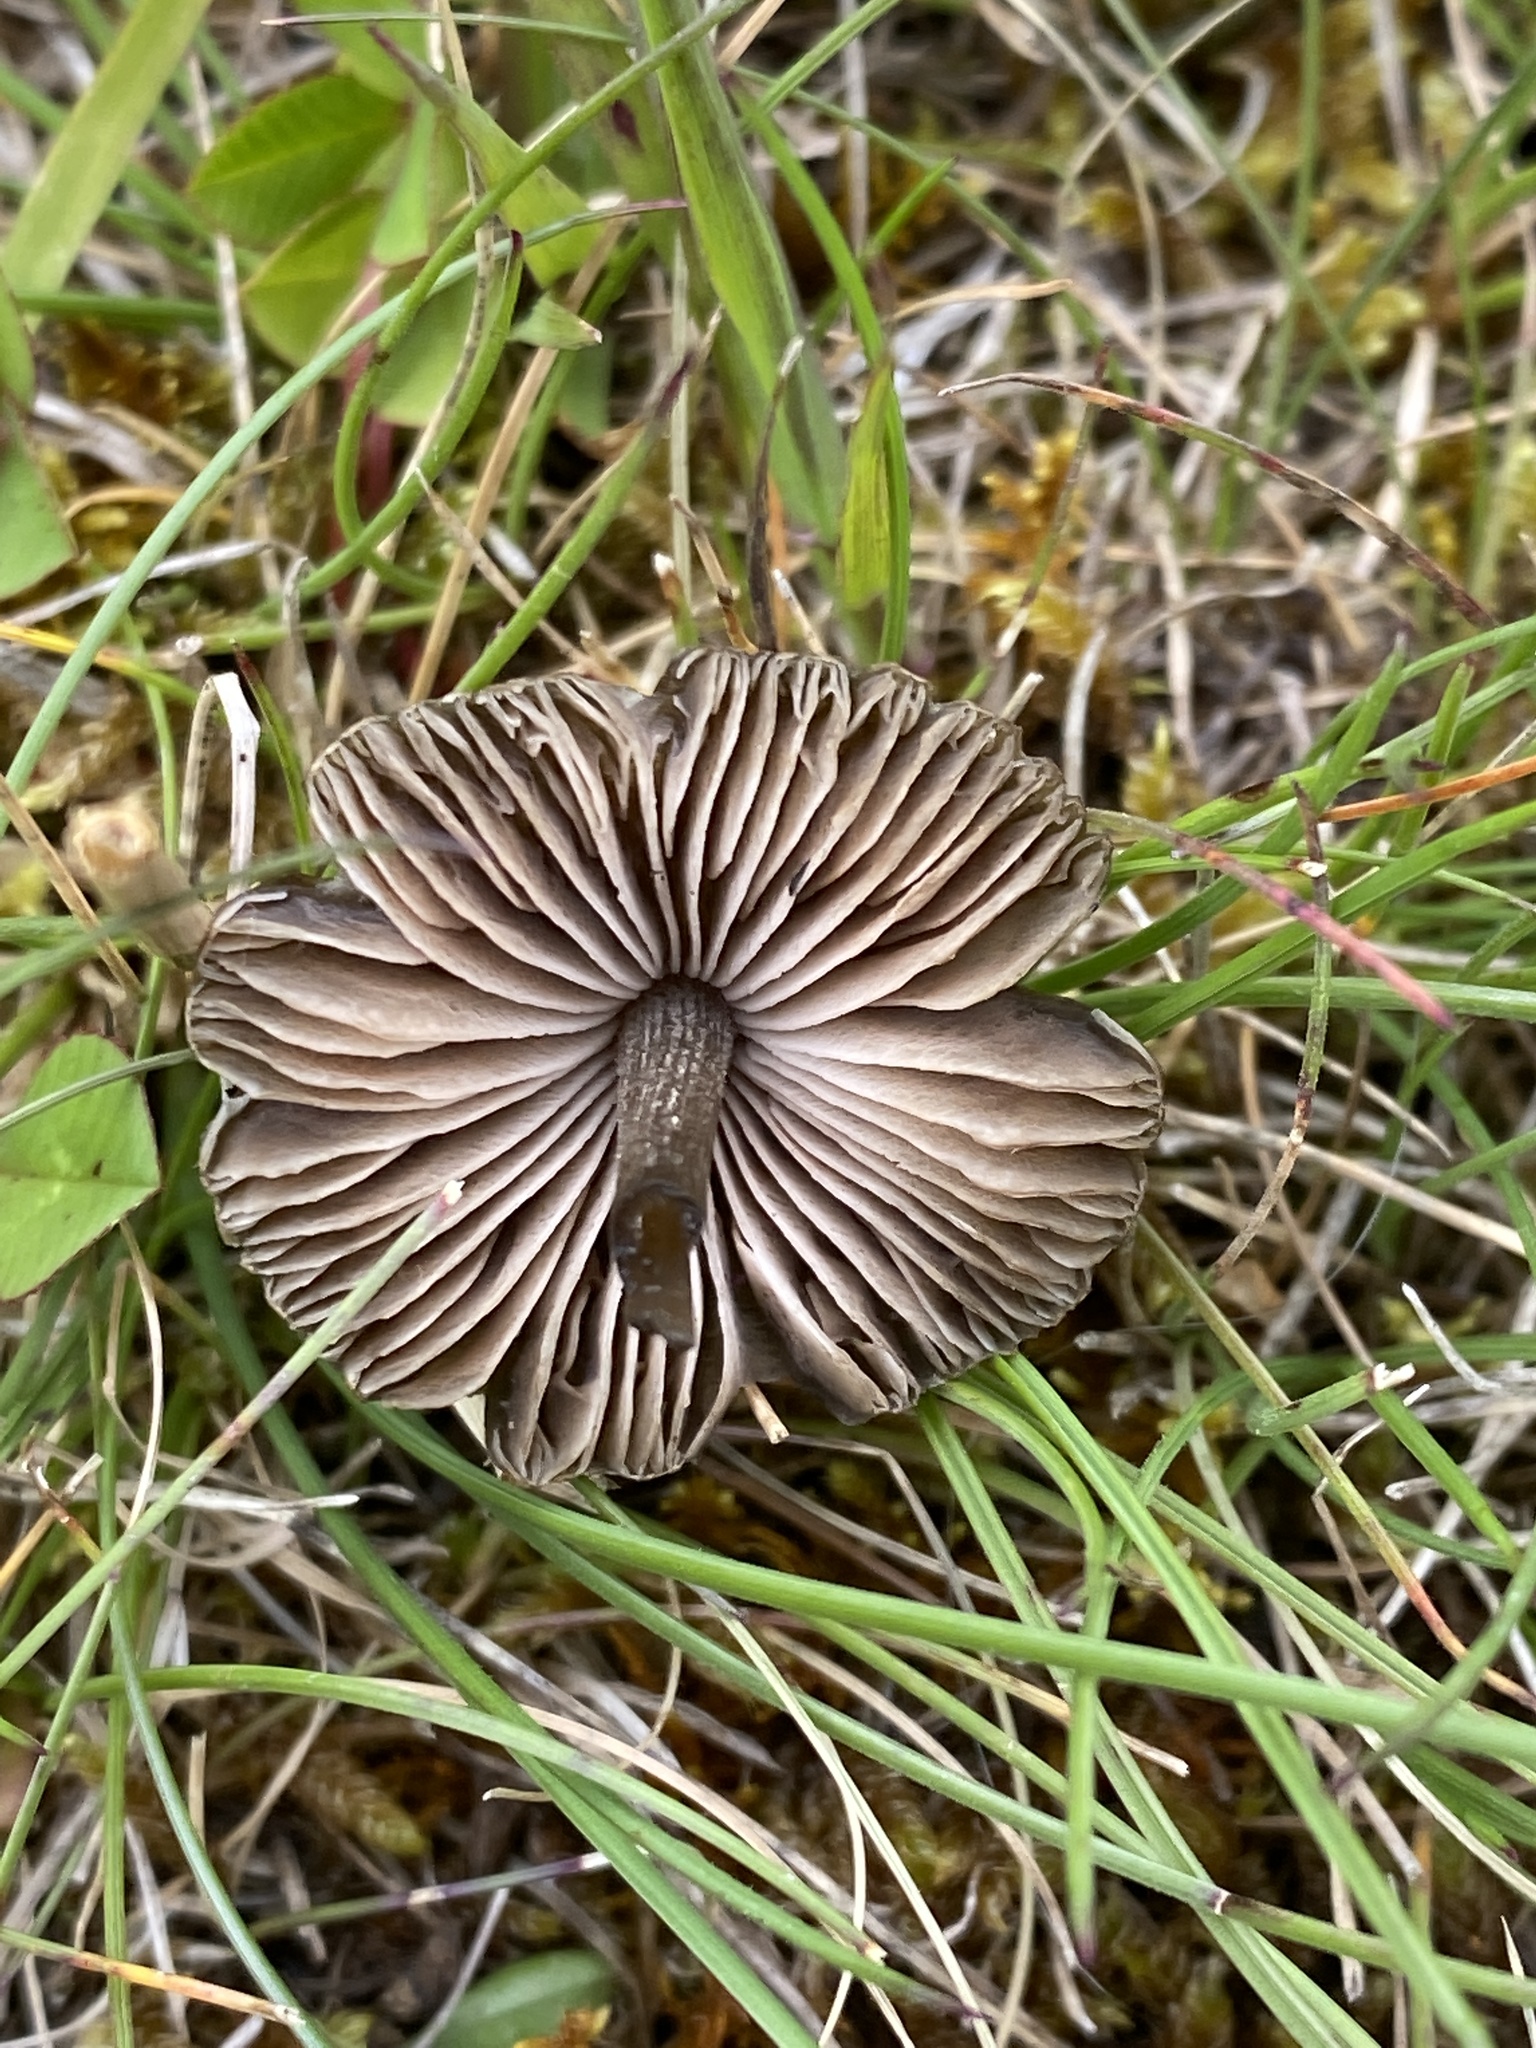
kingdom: Fungi
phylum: Basidiomycota
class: Agaricomycetes
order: Agaricales
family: Entolomataceae
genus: Entoloma
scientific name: Entoloma perzonatum
